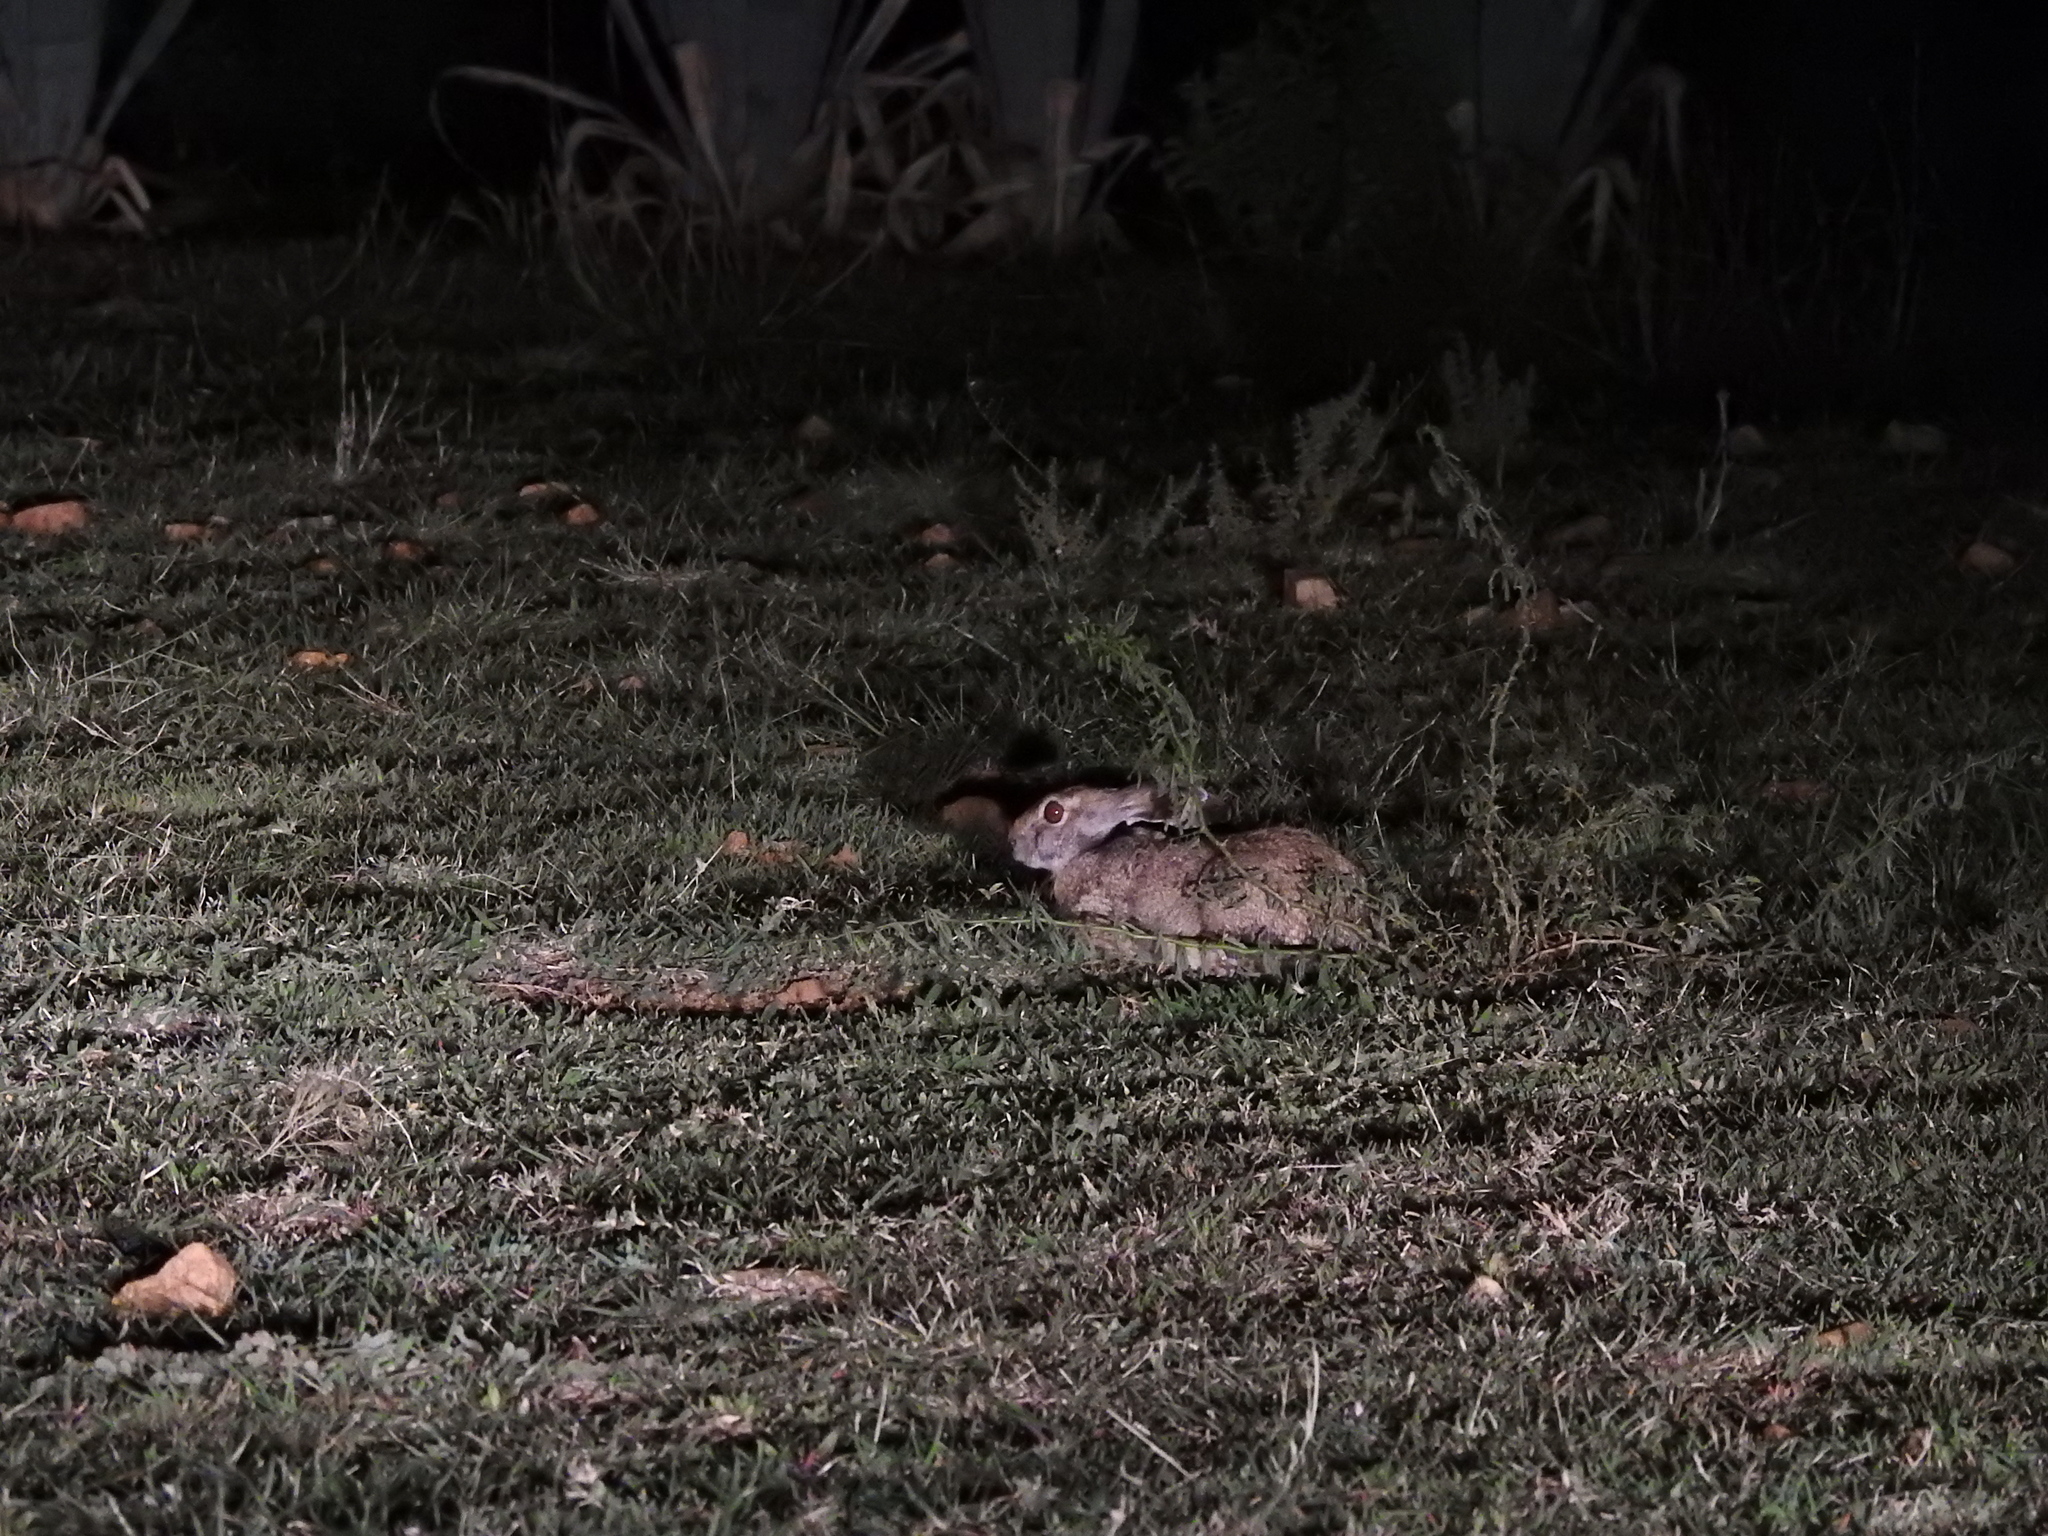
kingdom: Animalia
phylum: Chordata
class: Mammalia
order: Lagomorpha
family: Leporidae
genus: Lepus
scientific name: Lepus nigricollis
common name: Indian hare
